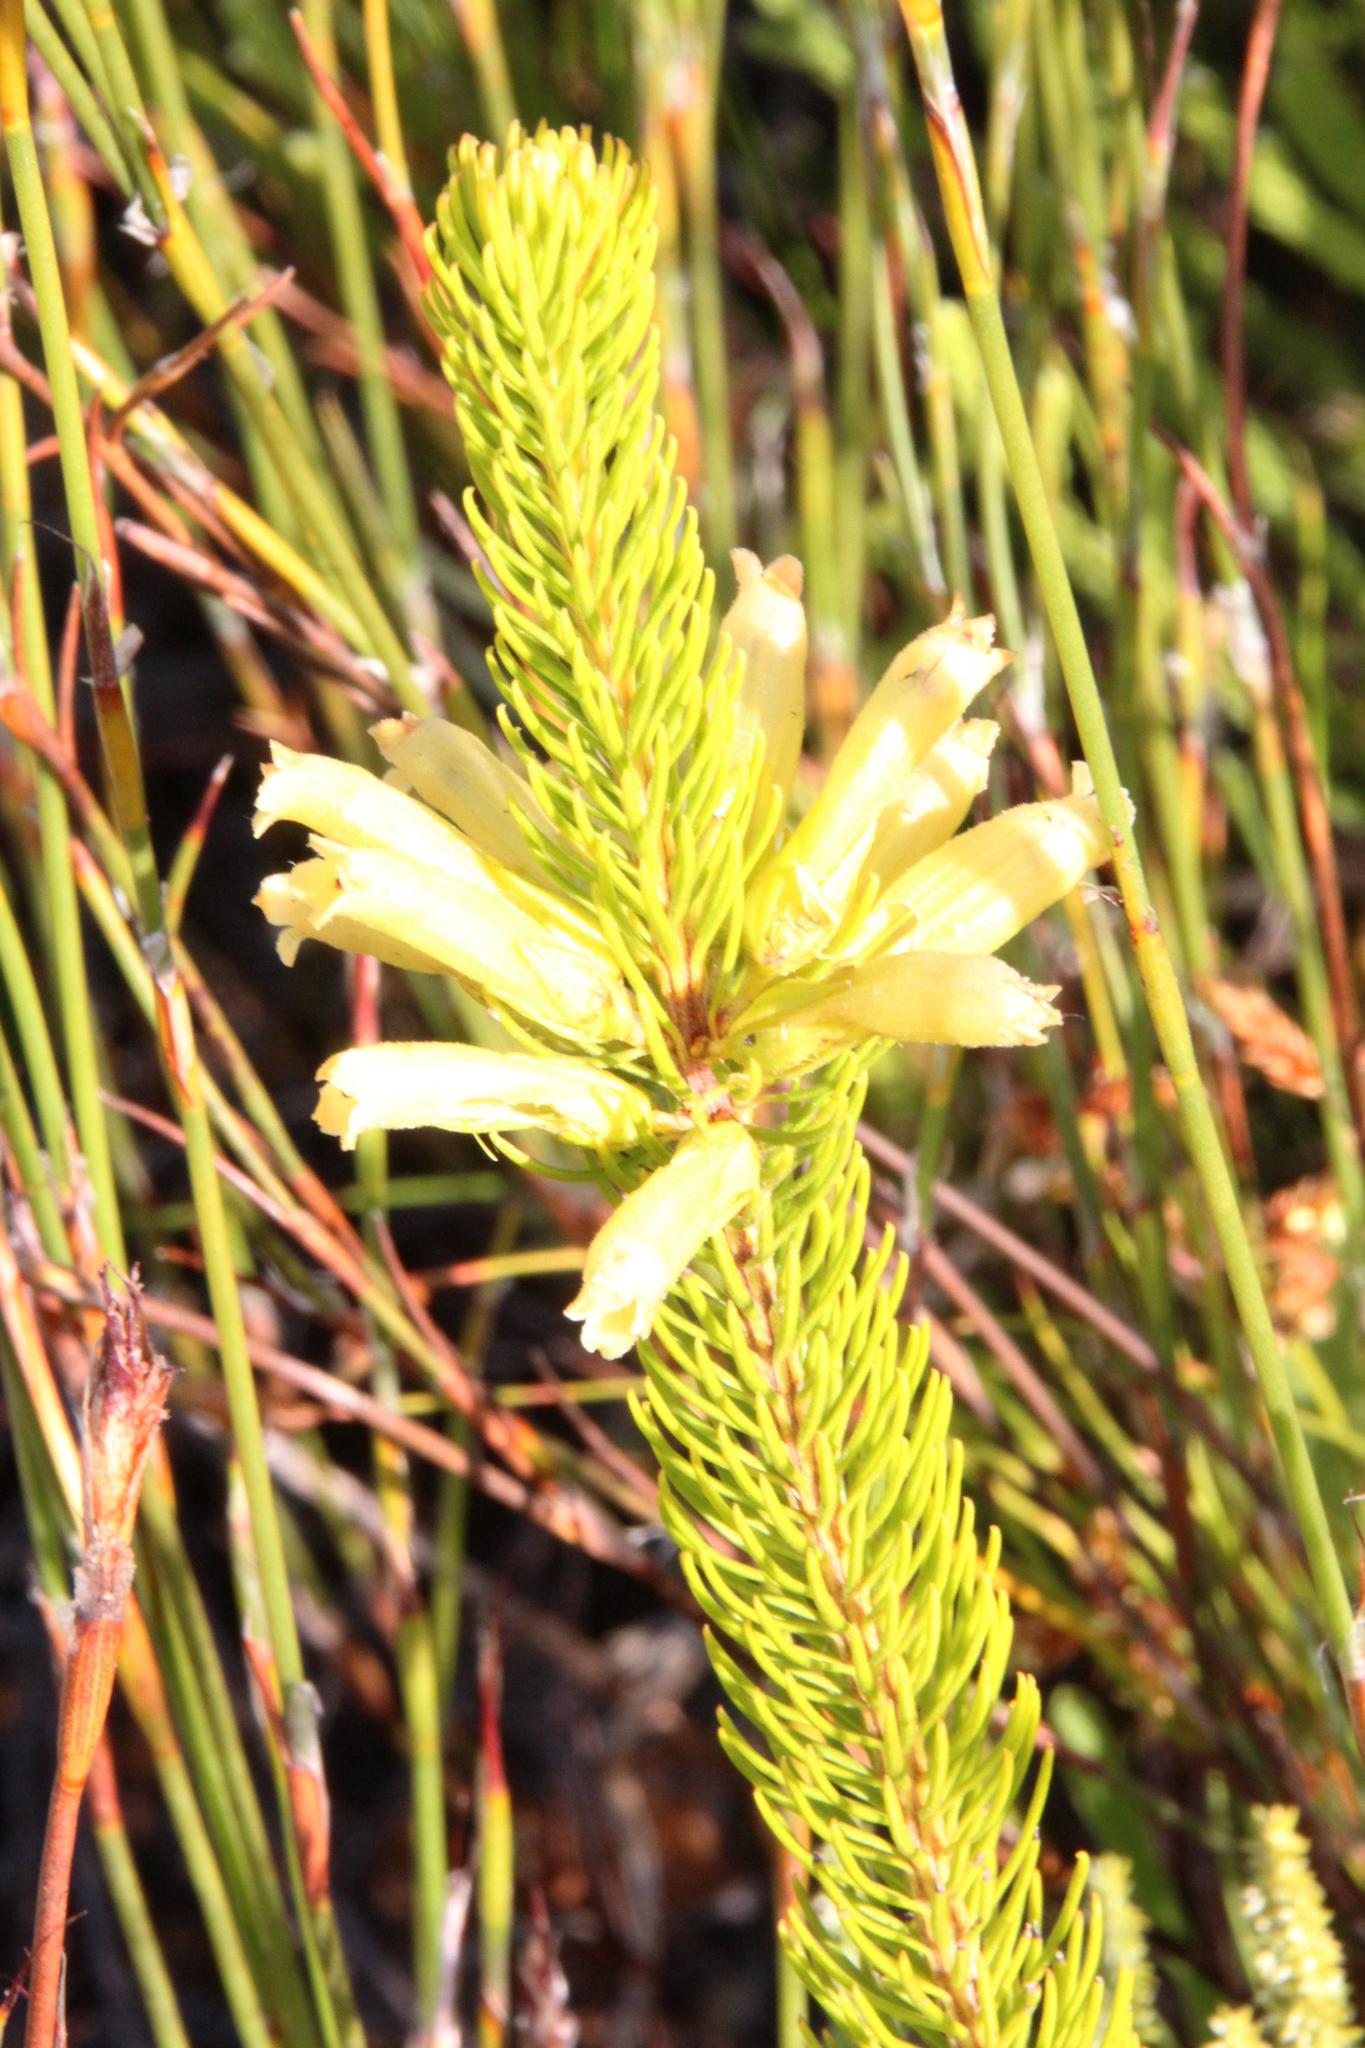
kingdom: Plantae
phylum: Tracheophyta
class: Magnoliopsida
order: Ericales
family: Ericaceae
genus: Erica
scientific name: Erica viscaria
